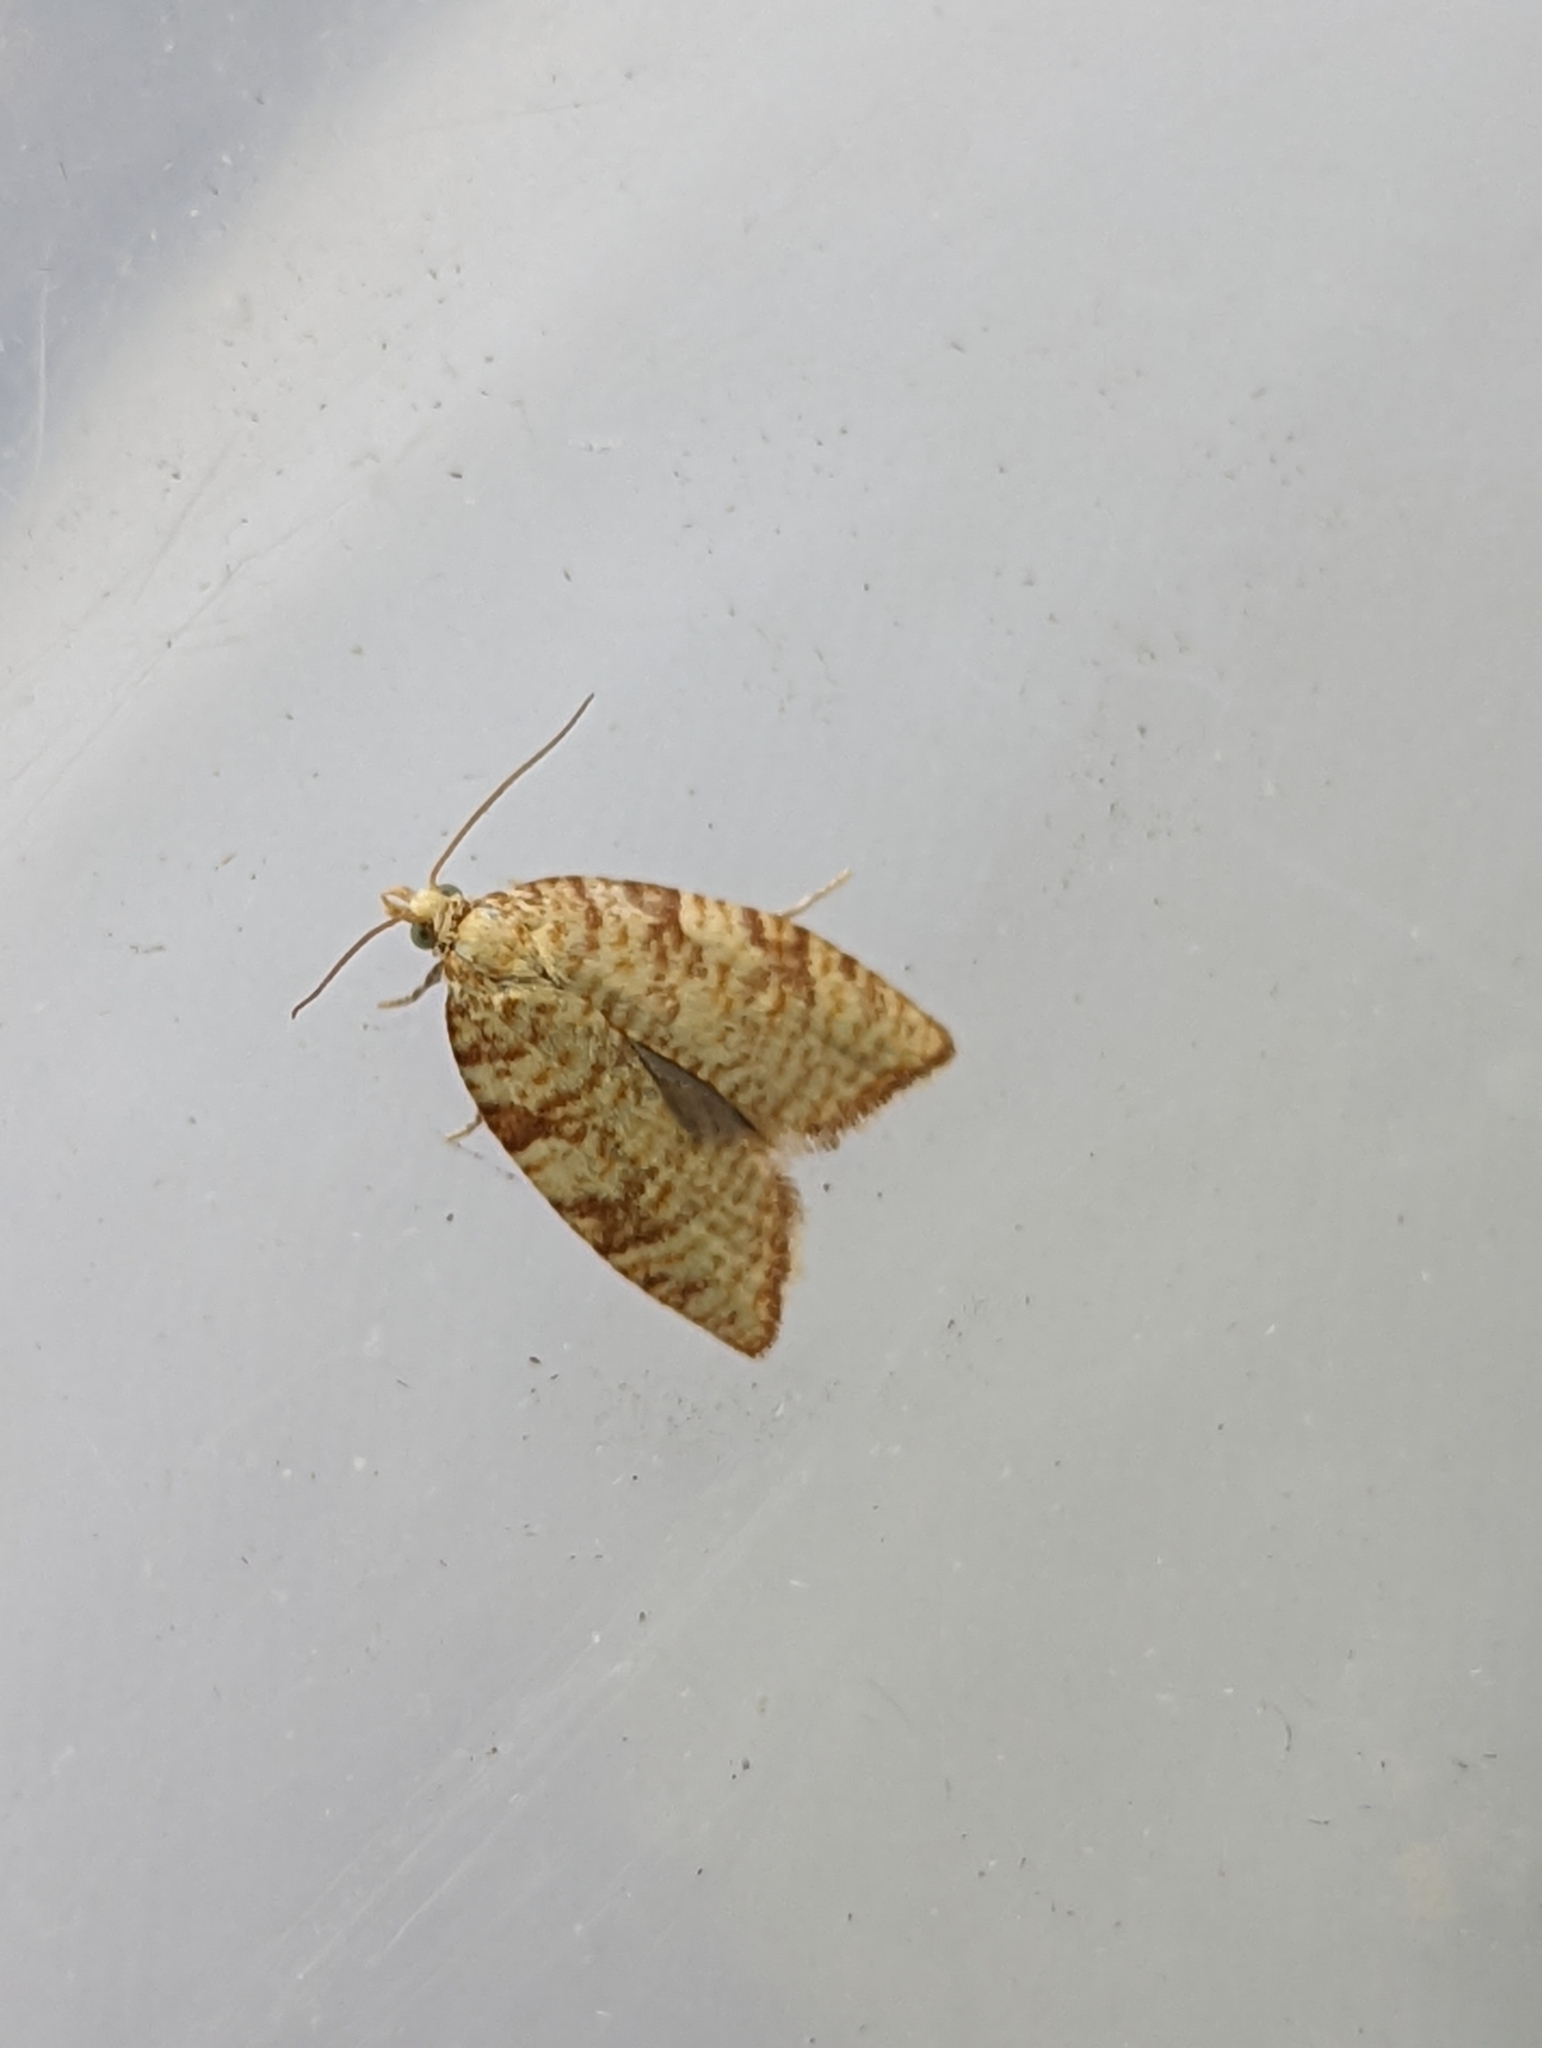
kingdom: Animalia
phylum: Arthropoda
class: Insecta
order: Lepidoptera
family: Tortricidae
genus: Aleimma
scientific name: Aleimma loeflingiana
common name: Yellow oak button
